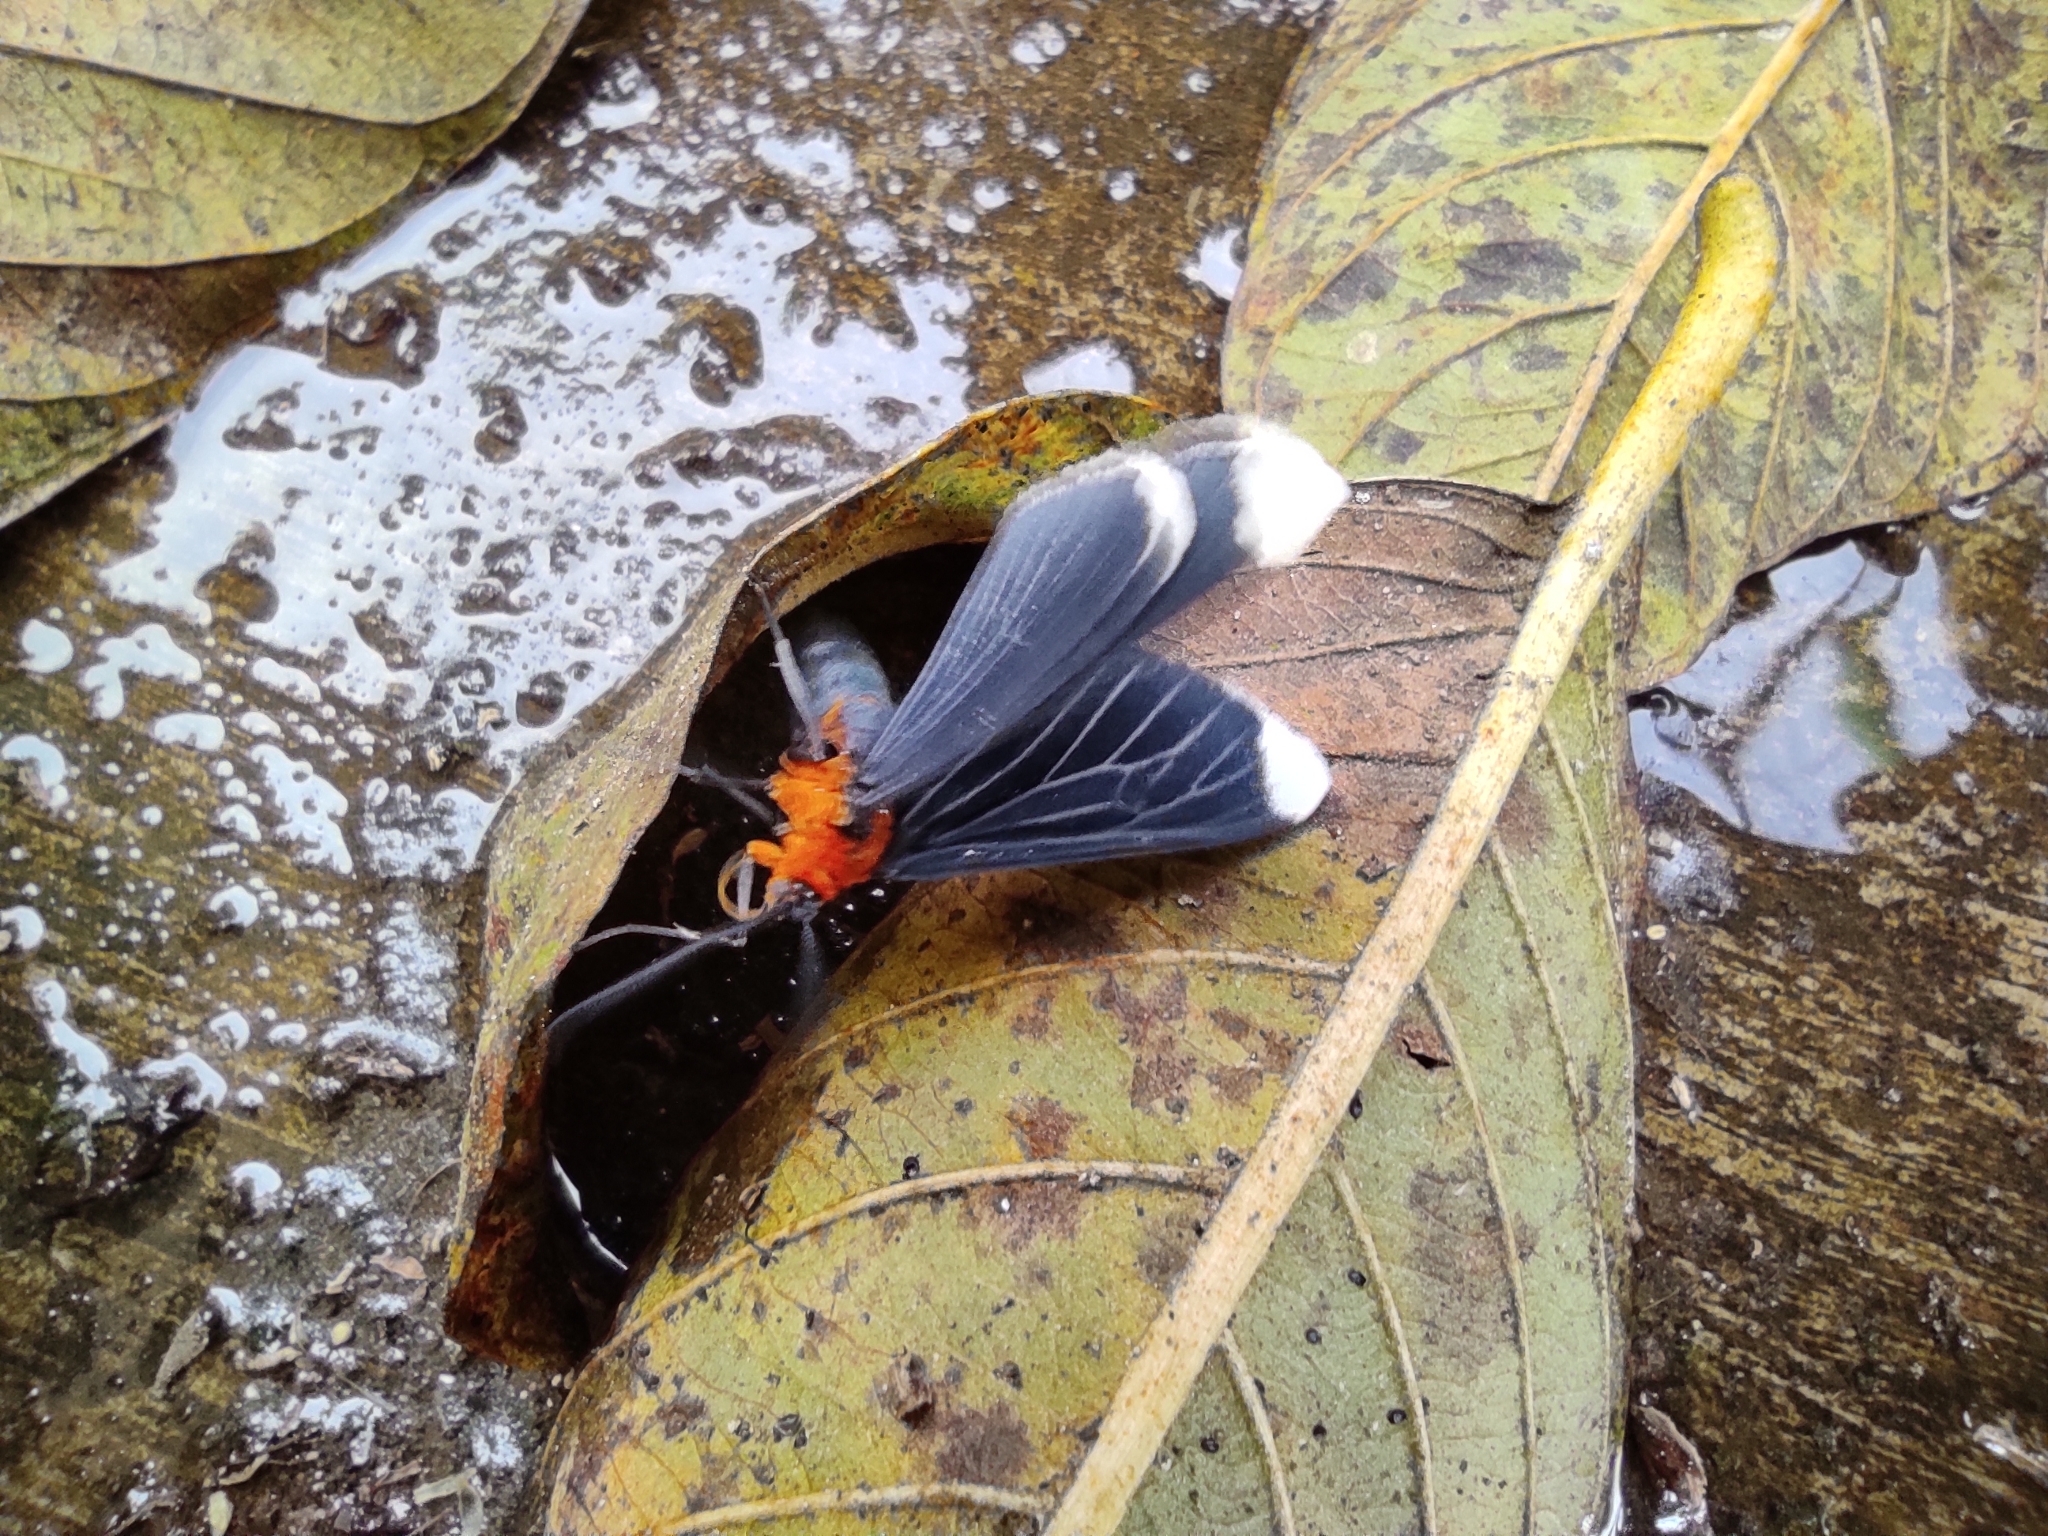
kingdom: Animalia
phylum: Arthropoda
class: Insecta
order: Lepidoptera
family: Geometridae
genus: Melanchroia
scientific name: Melanchroia chephise
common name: White-tipped black
